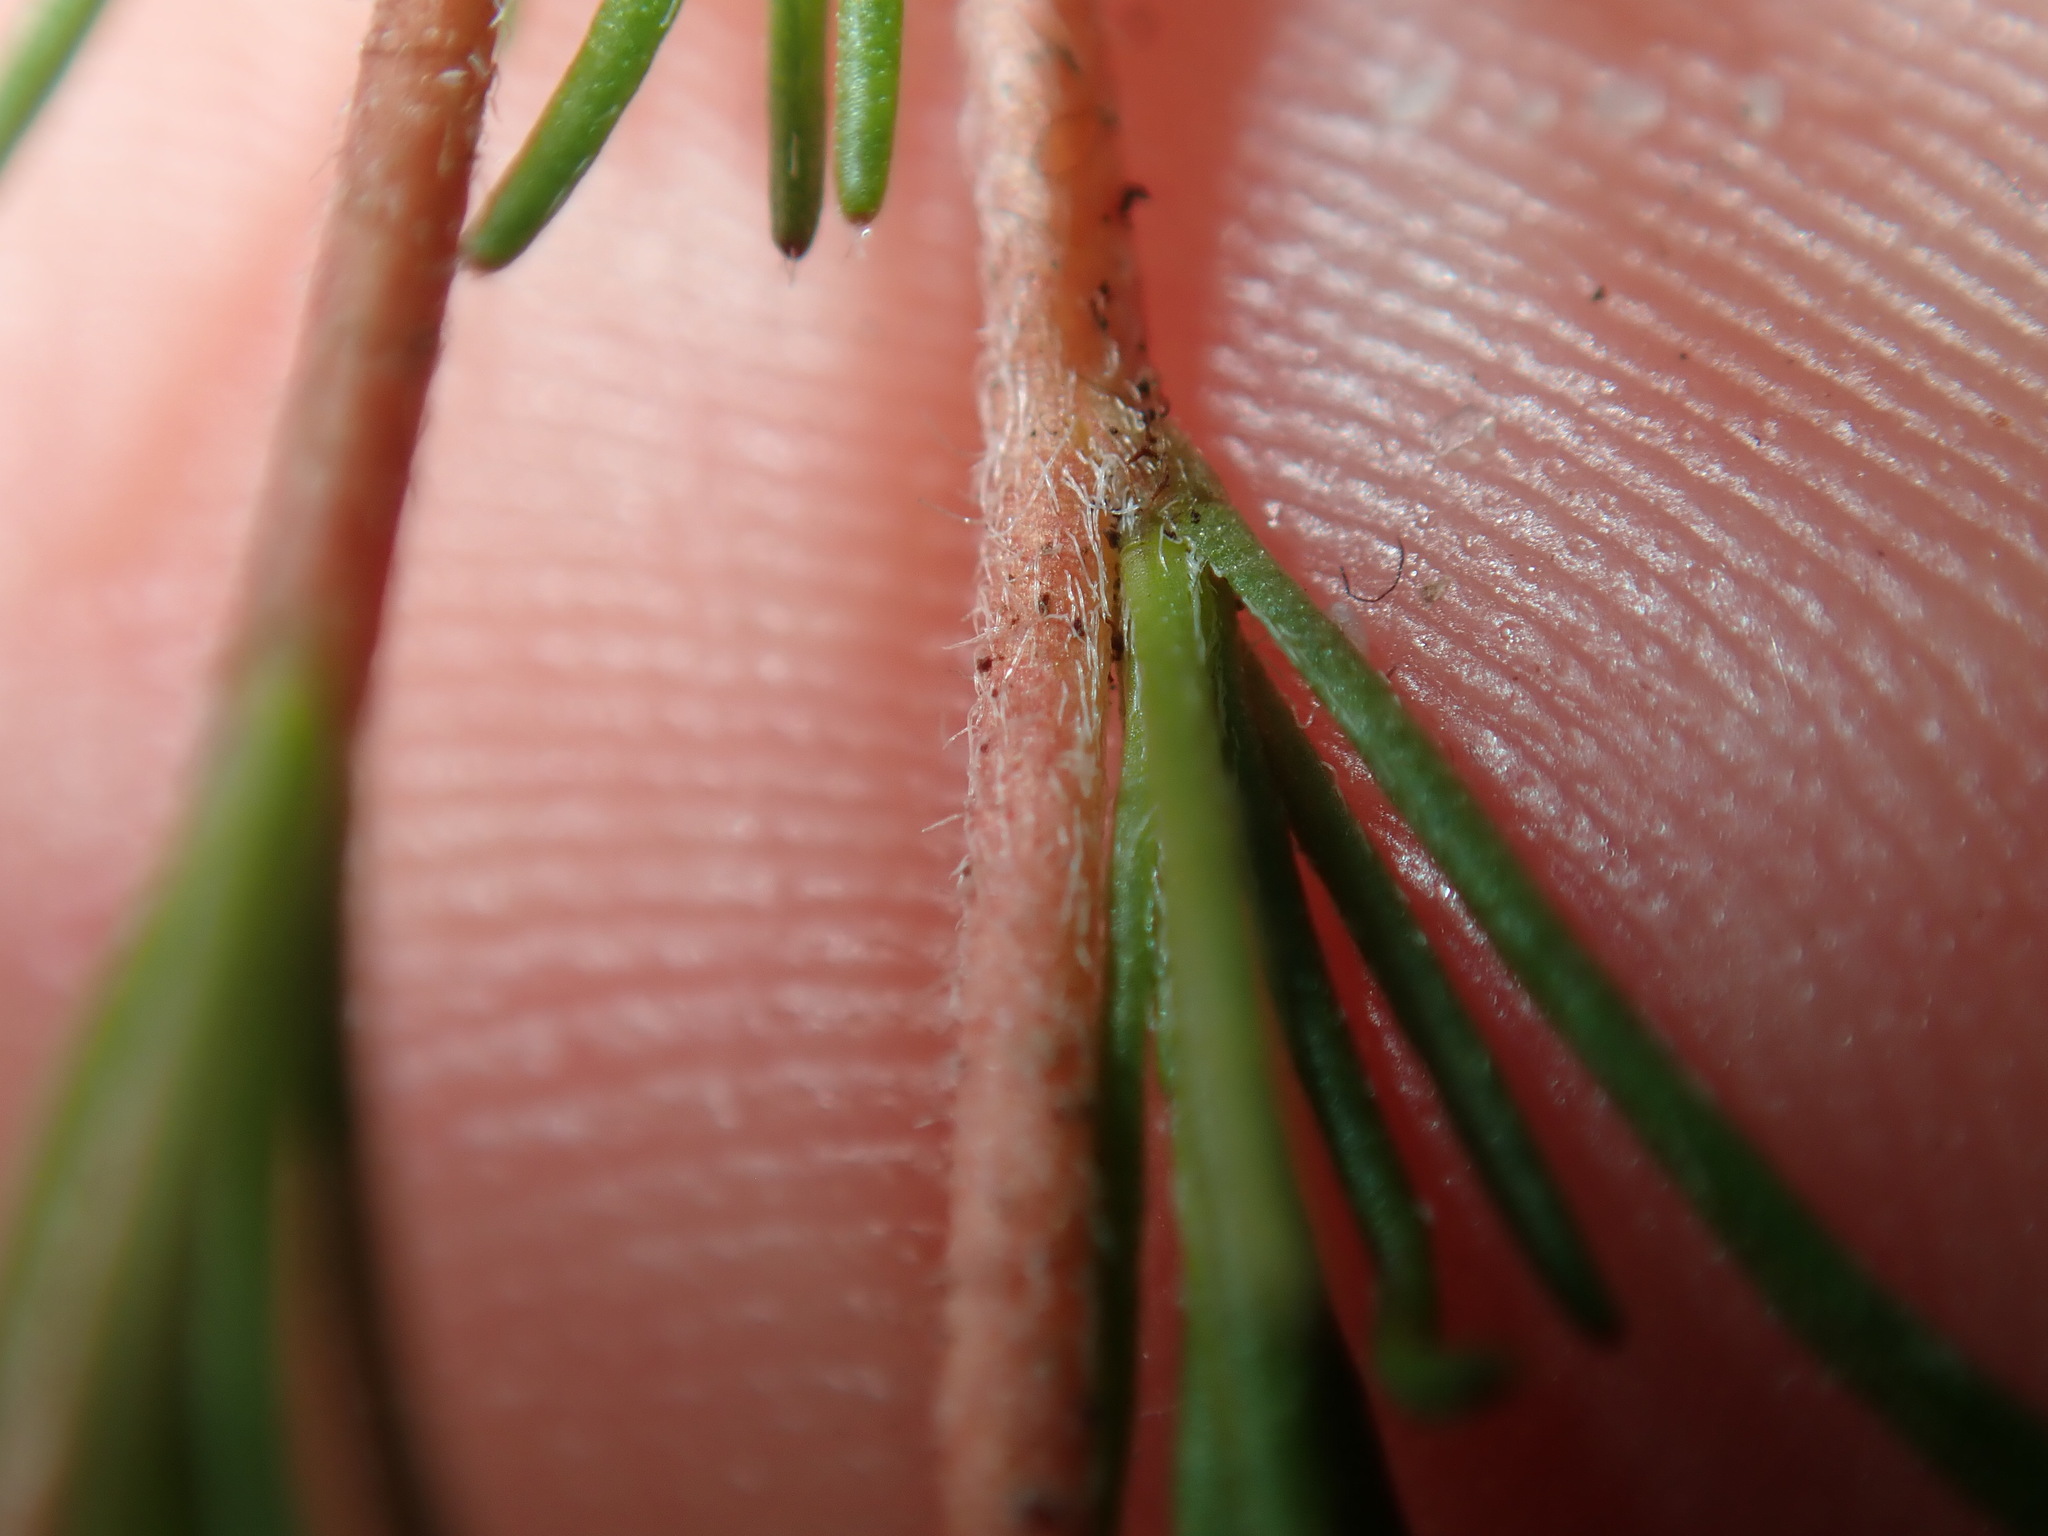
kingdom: Plantae
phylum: Tracheophyta
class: Magnoliopsida
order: Dilleniales
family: Dilleniaceae
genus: Hibbertia
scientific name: Hibbertia fasciculata
